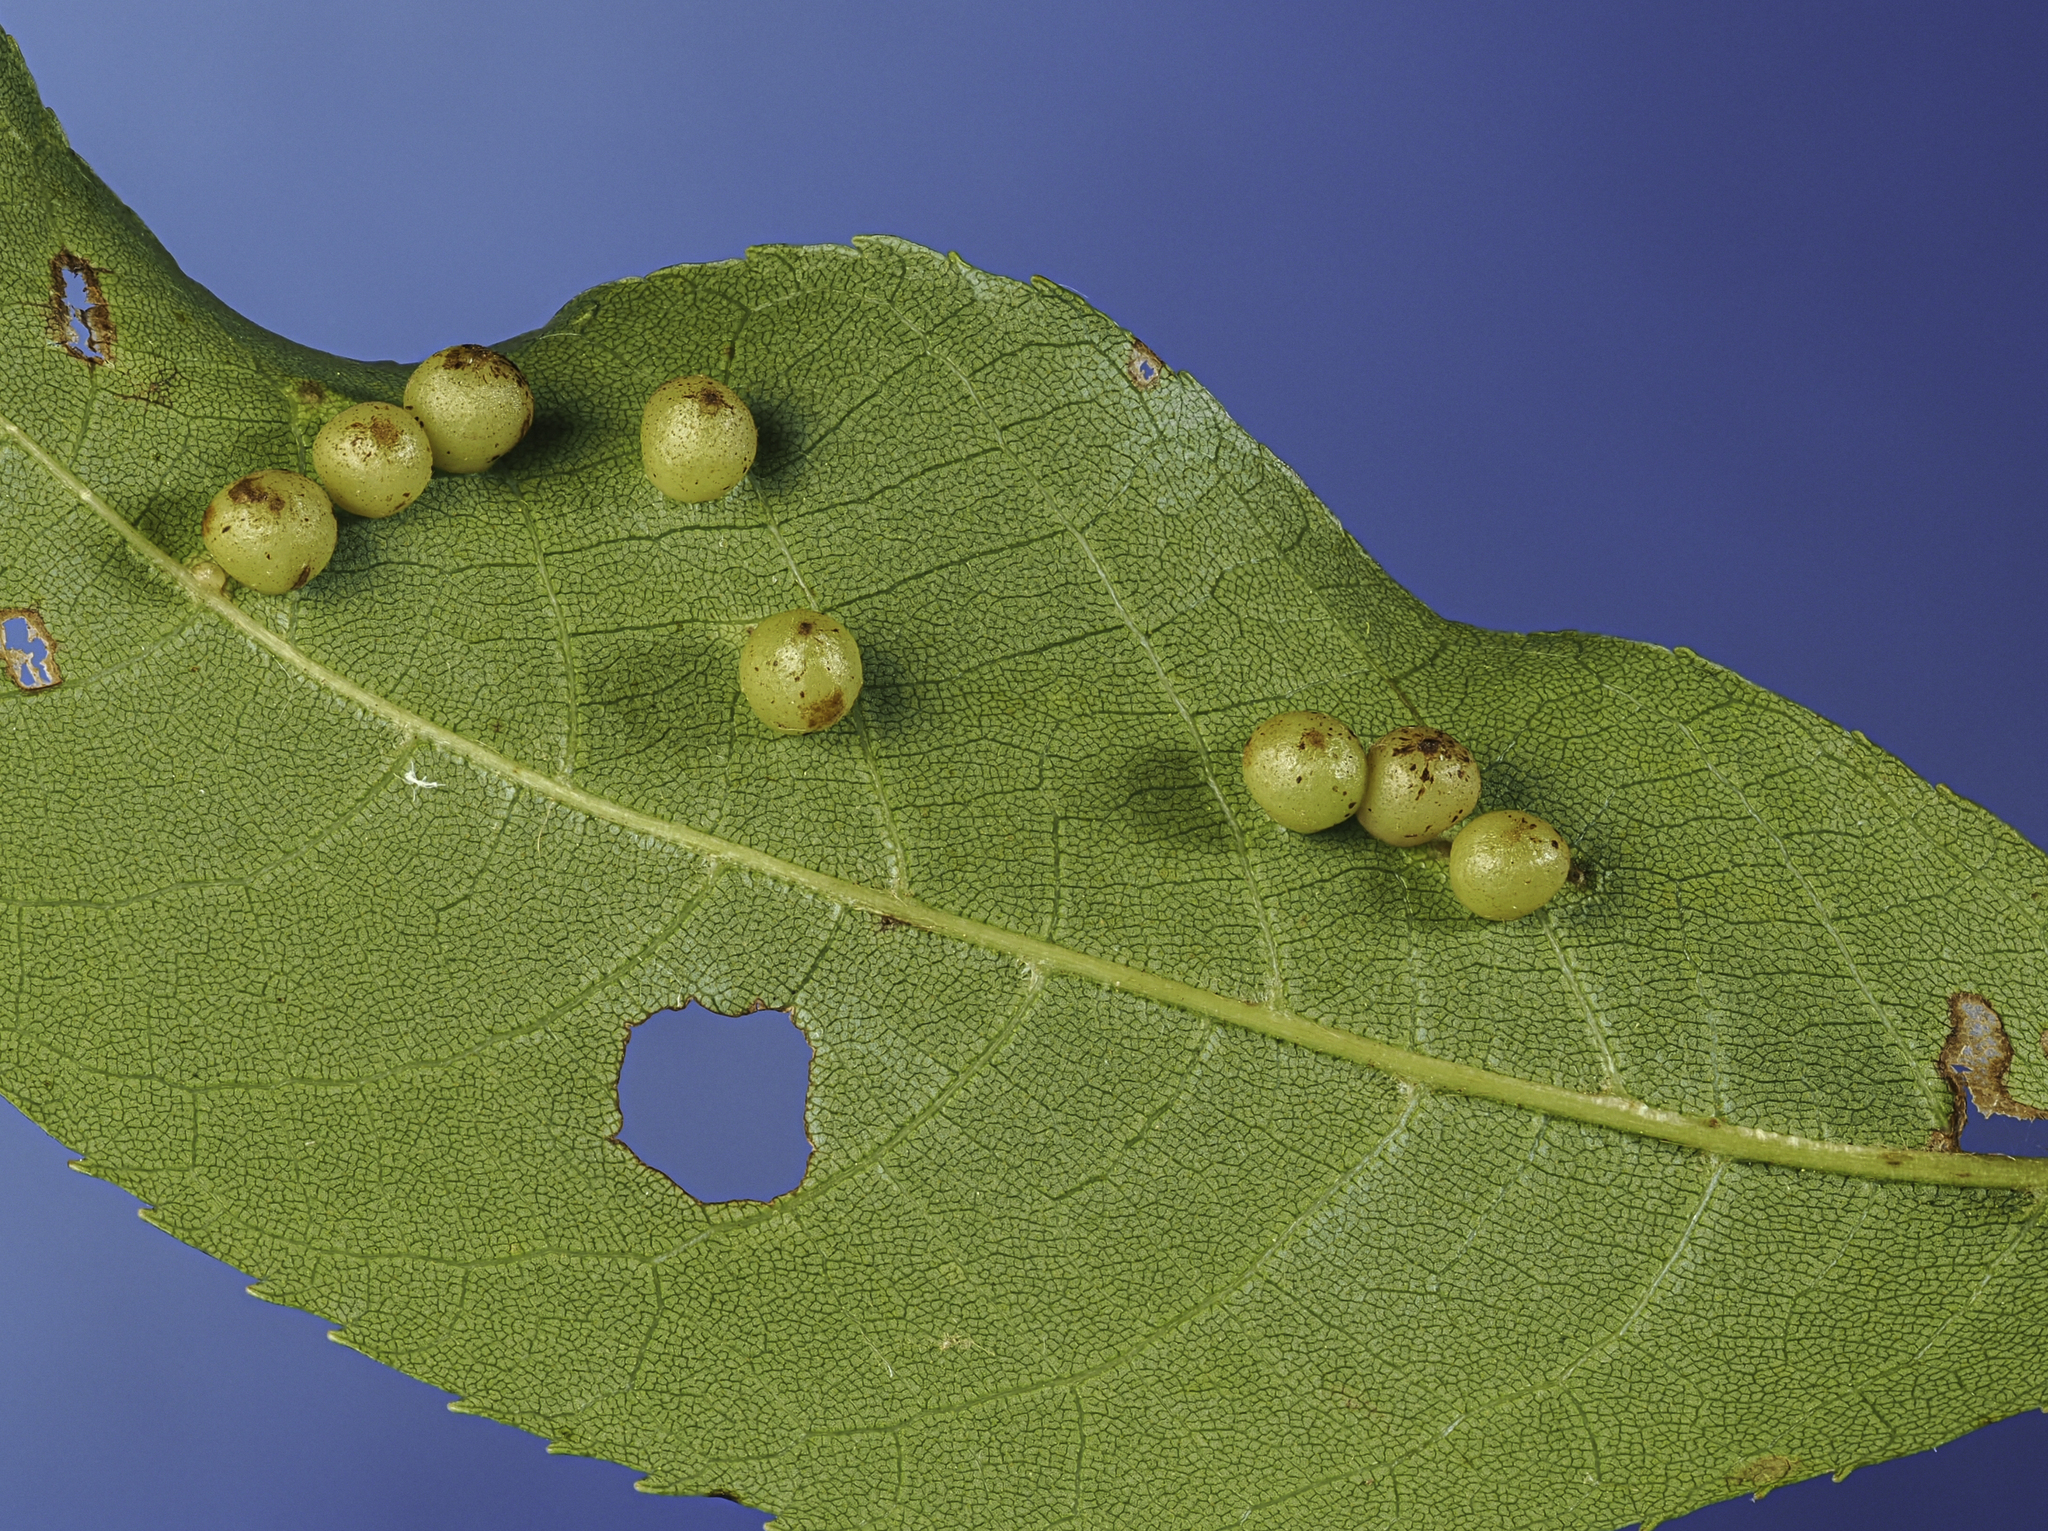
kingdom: Animalia
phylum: Arthropoda
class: Insecta
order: Diptera
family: Cecidomyiidae
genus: Caryomyia
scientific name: Caryomyia caryae
